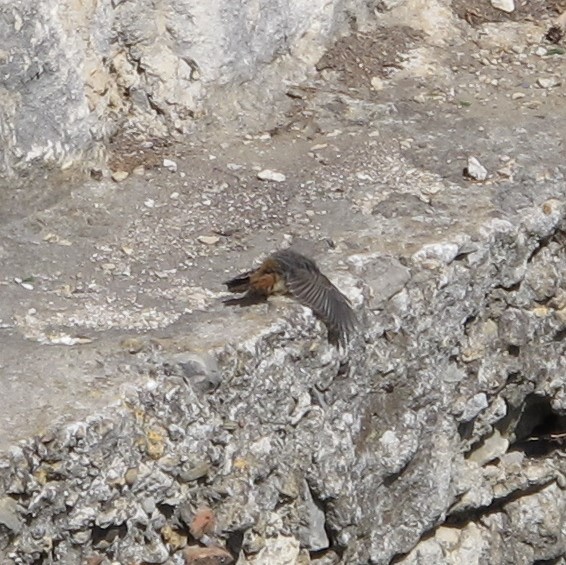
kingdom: Animalia
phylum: Chordata
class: Aves
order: Passeriformes
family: Muscicapidae
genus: Phoenicurus
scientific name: Phoenicurus ochruros
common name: Black redstart
